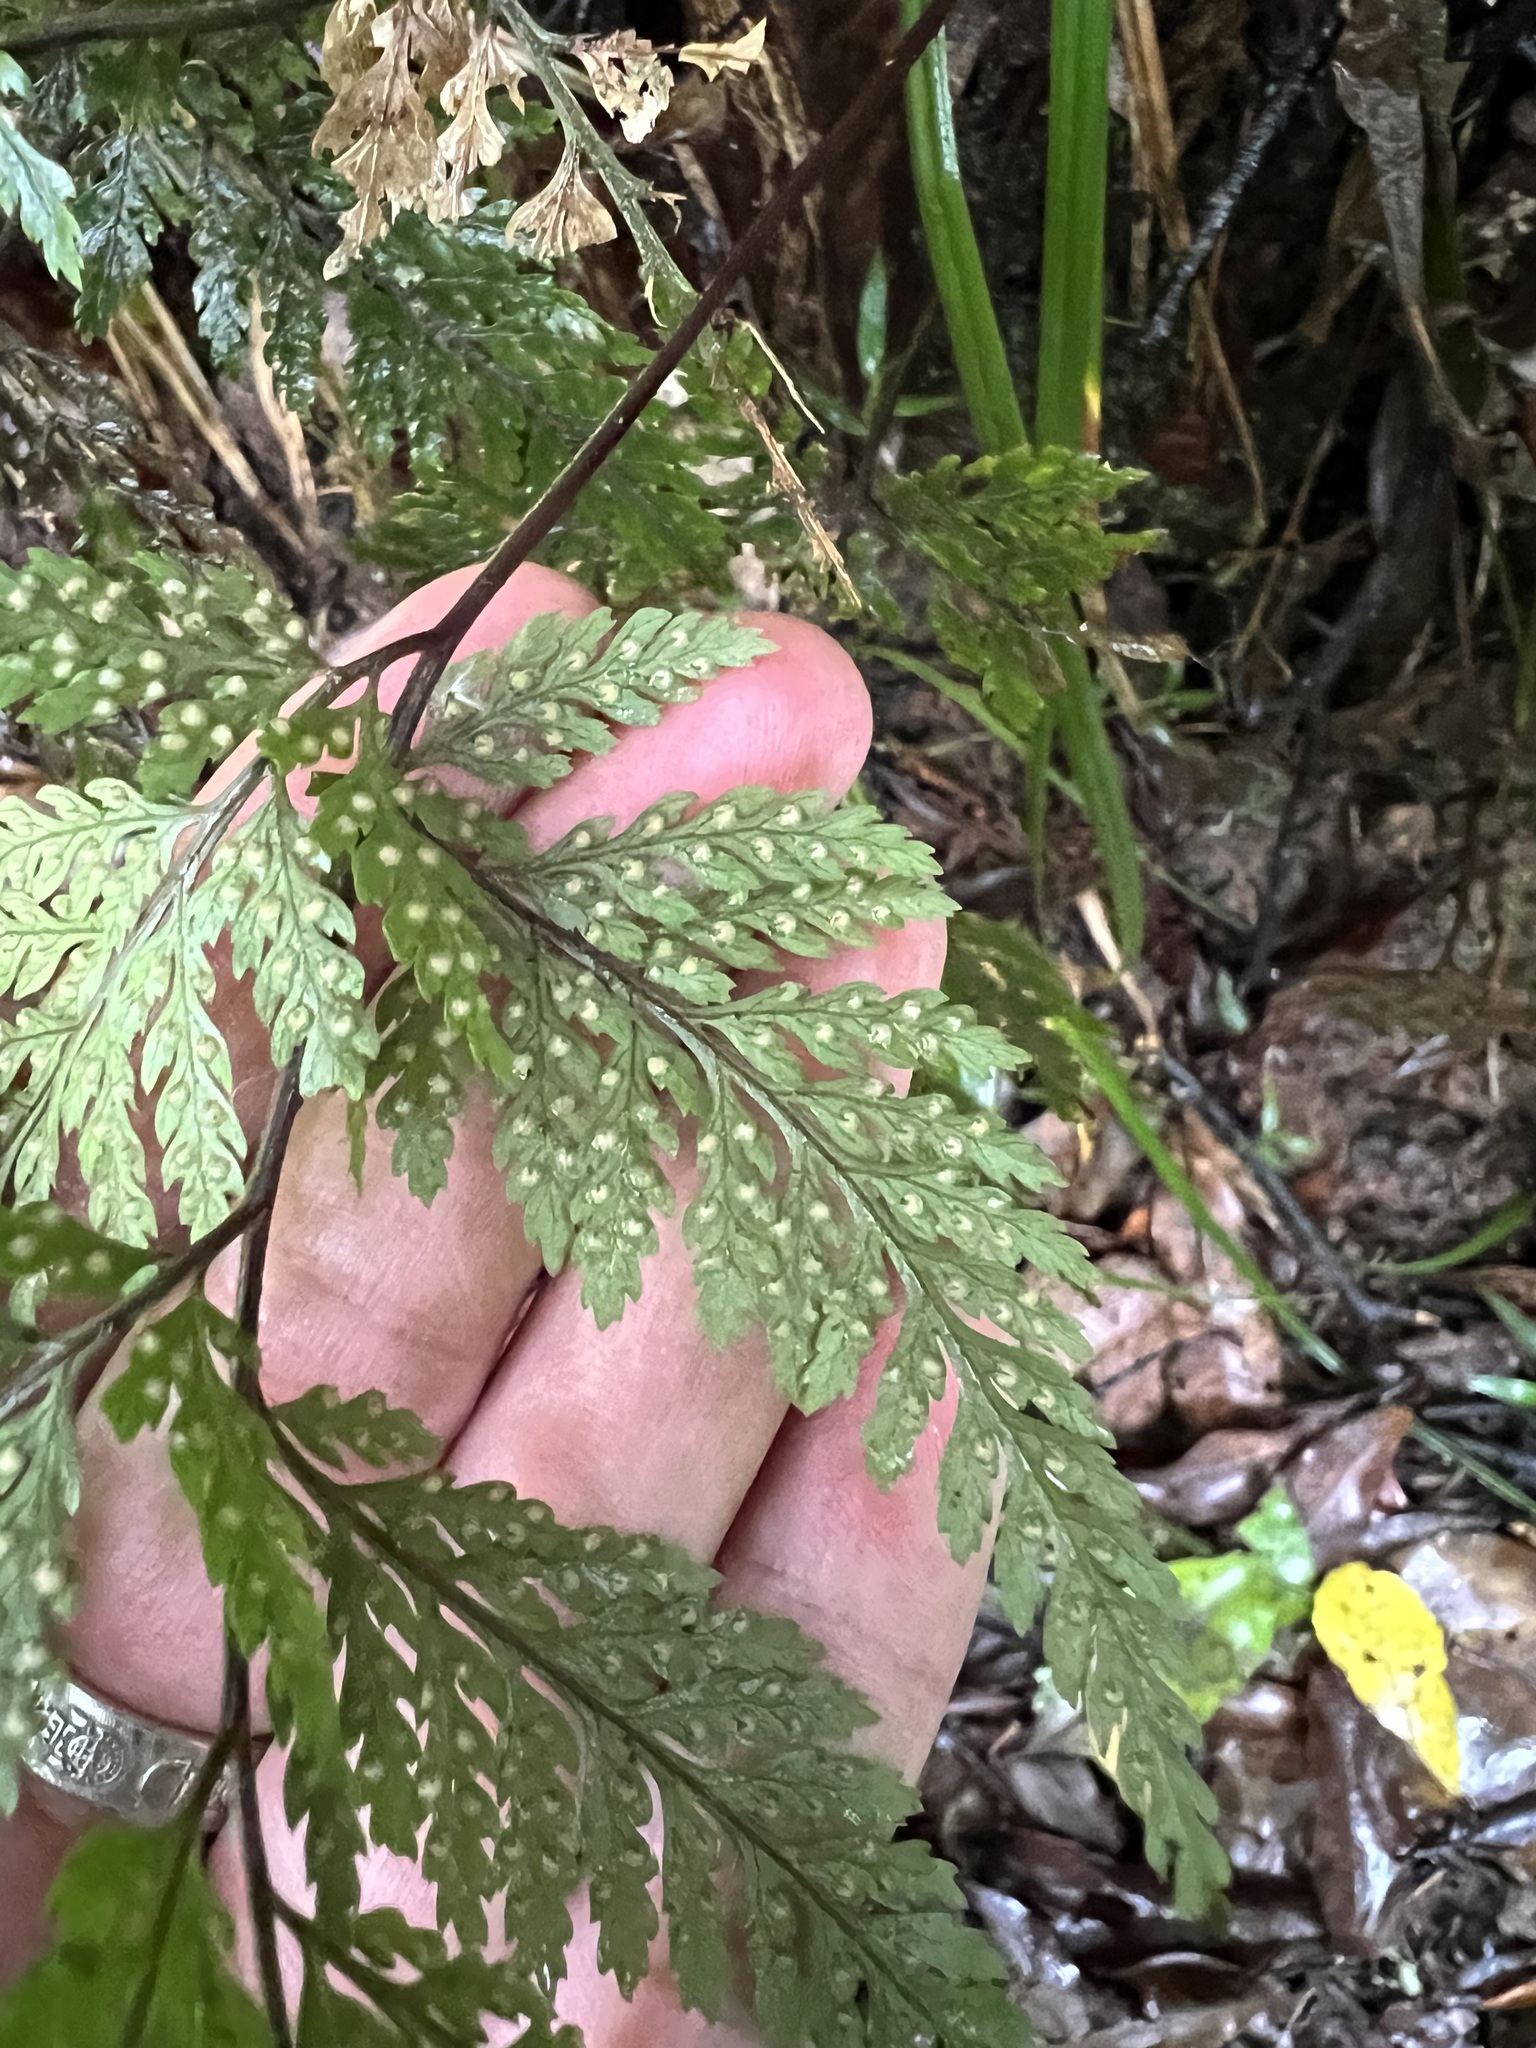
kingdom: Plantae
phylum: Tracheophyta
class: Polypodiopsida
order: Polypodiales
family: Dryopteridaceae
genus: Parapolystichum
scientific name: Parapolystichum glabellum
